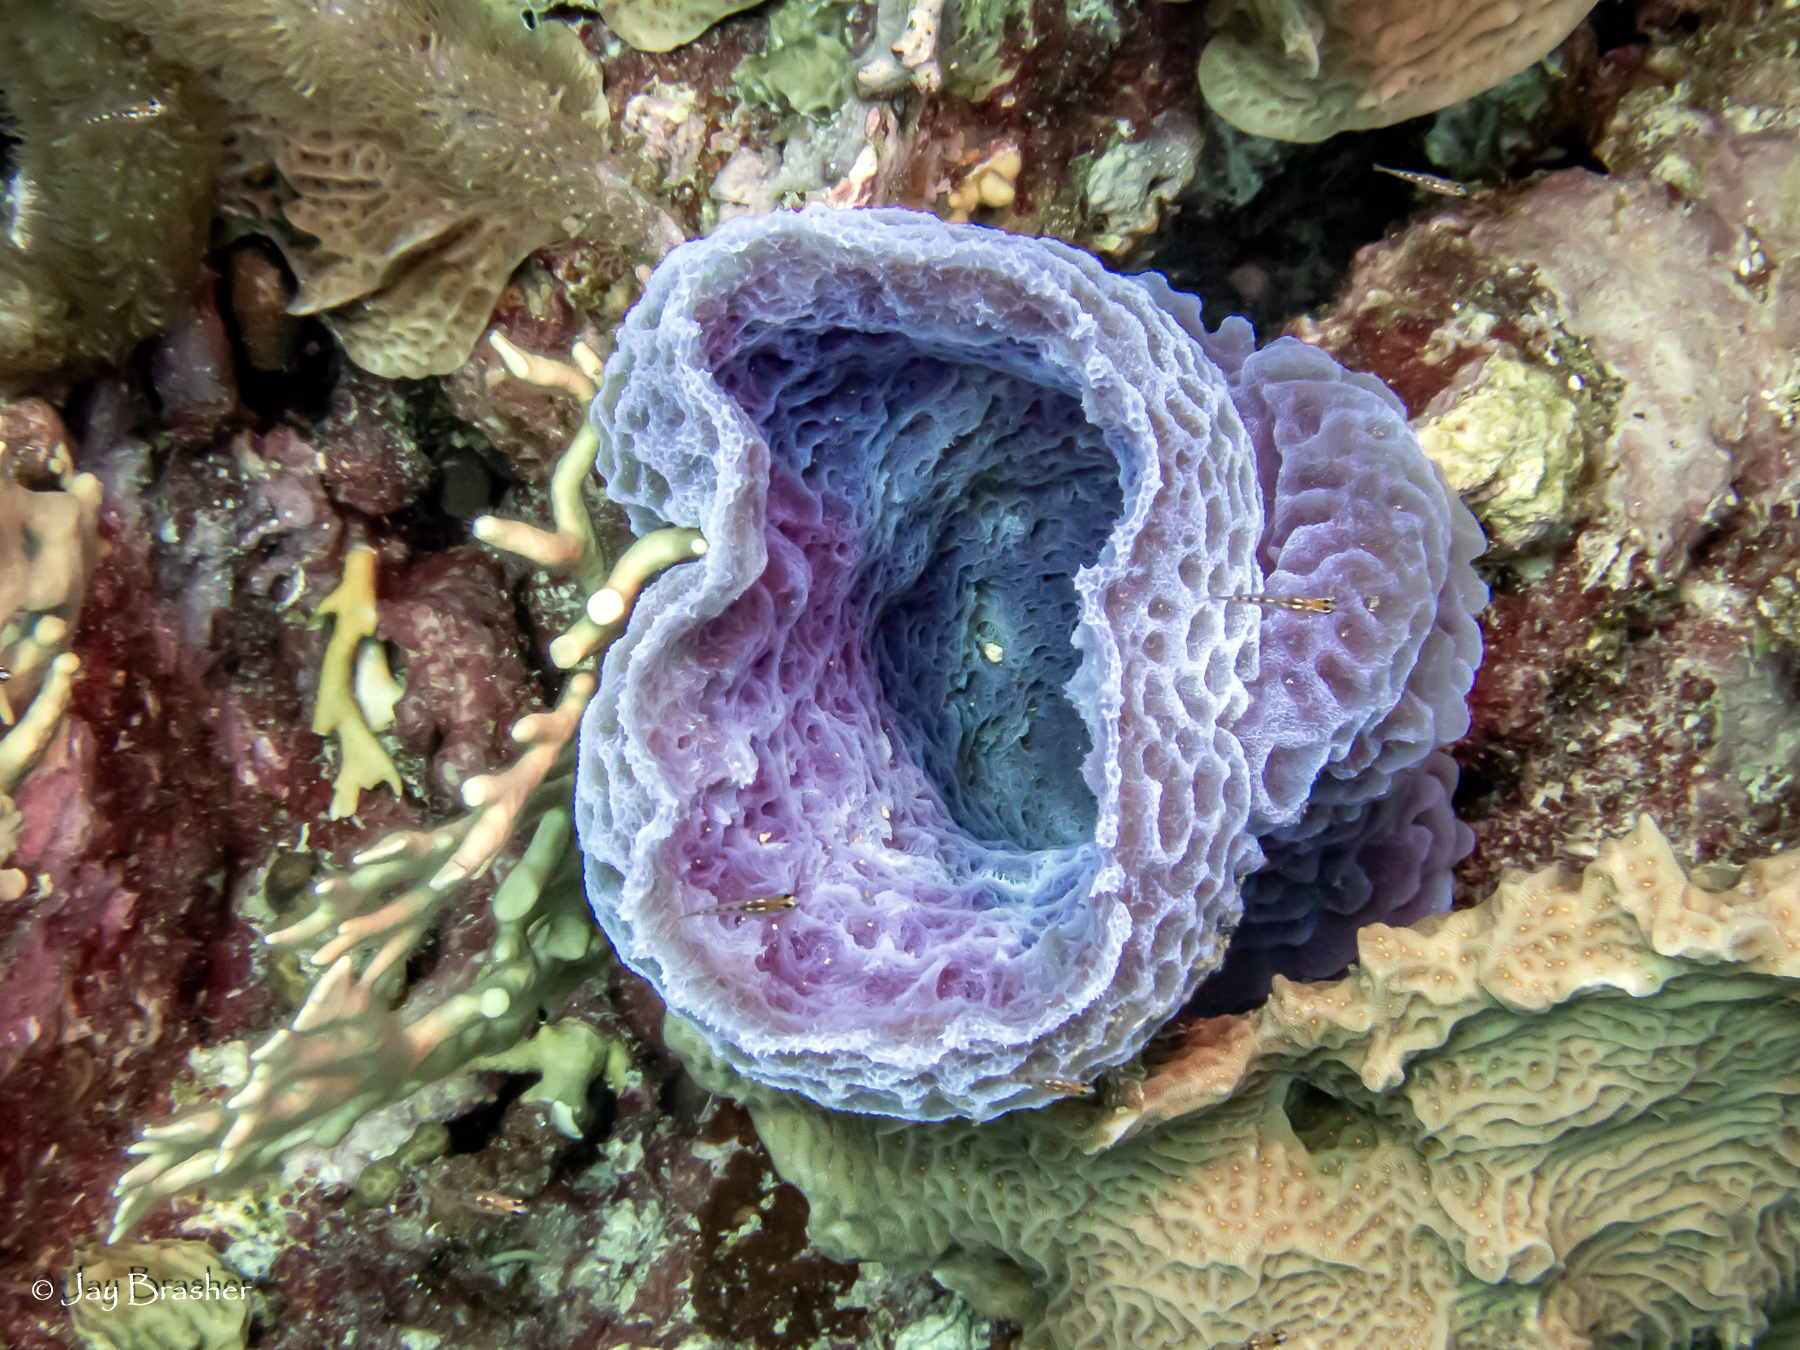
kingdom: Animalia
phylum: Porifera
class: Demospongiae
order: Haplosclerida
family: Callyspongiidae
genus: Callyspongia
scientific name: Callyspongia plicifera
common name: Azure vase sponge
